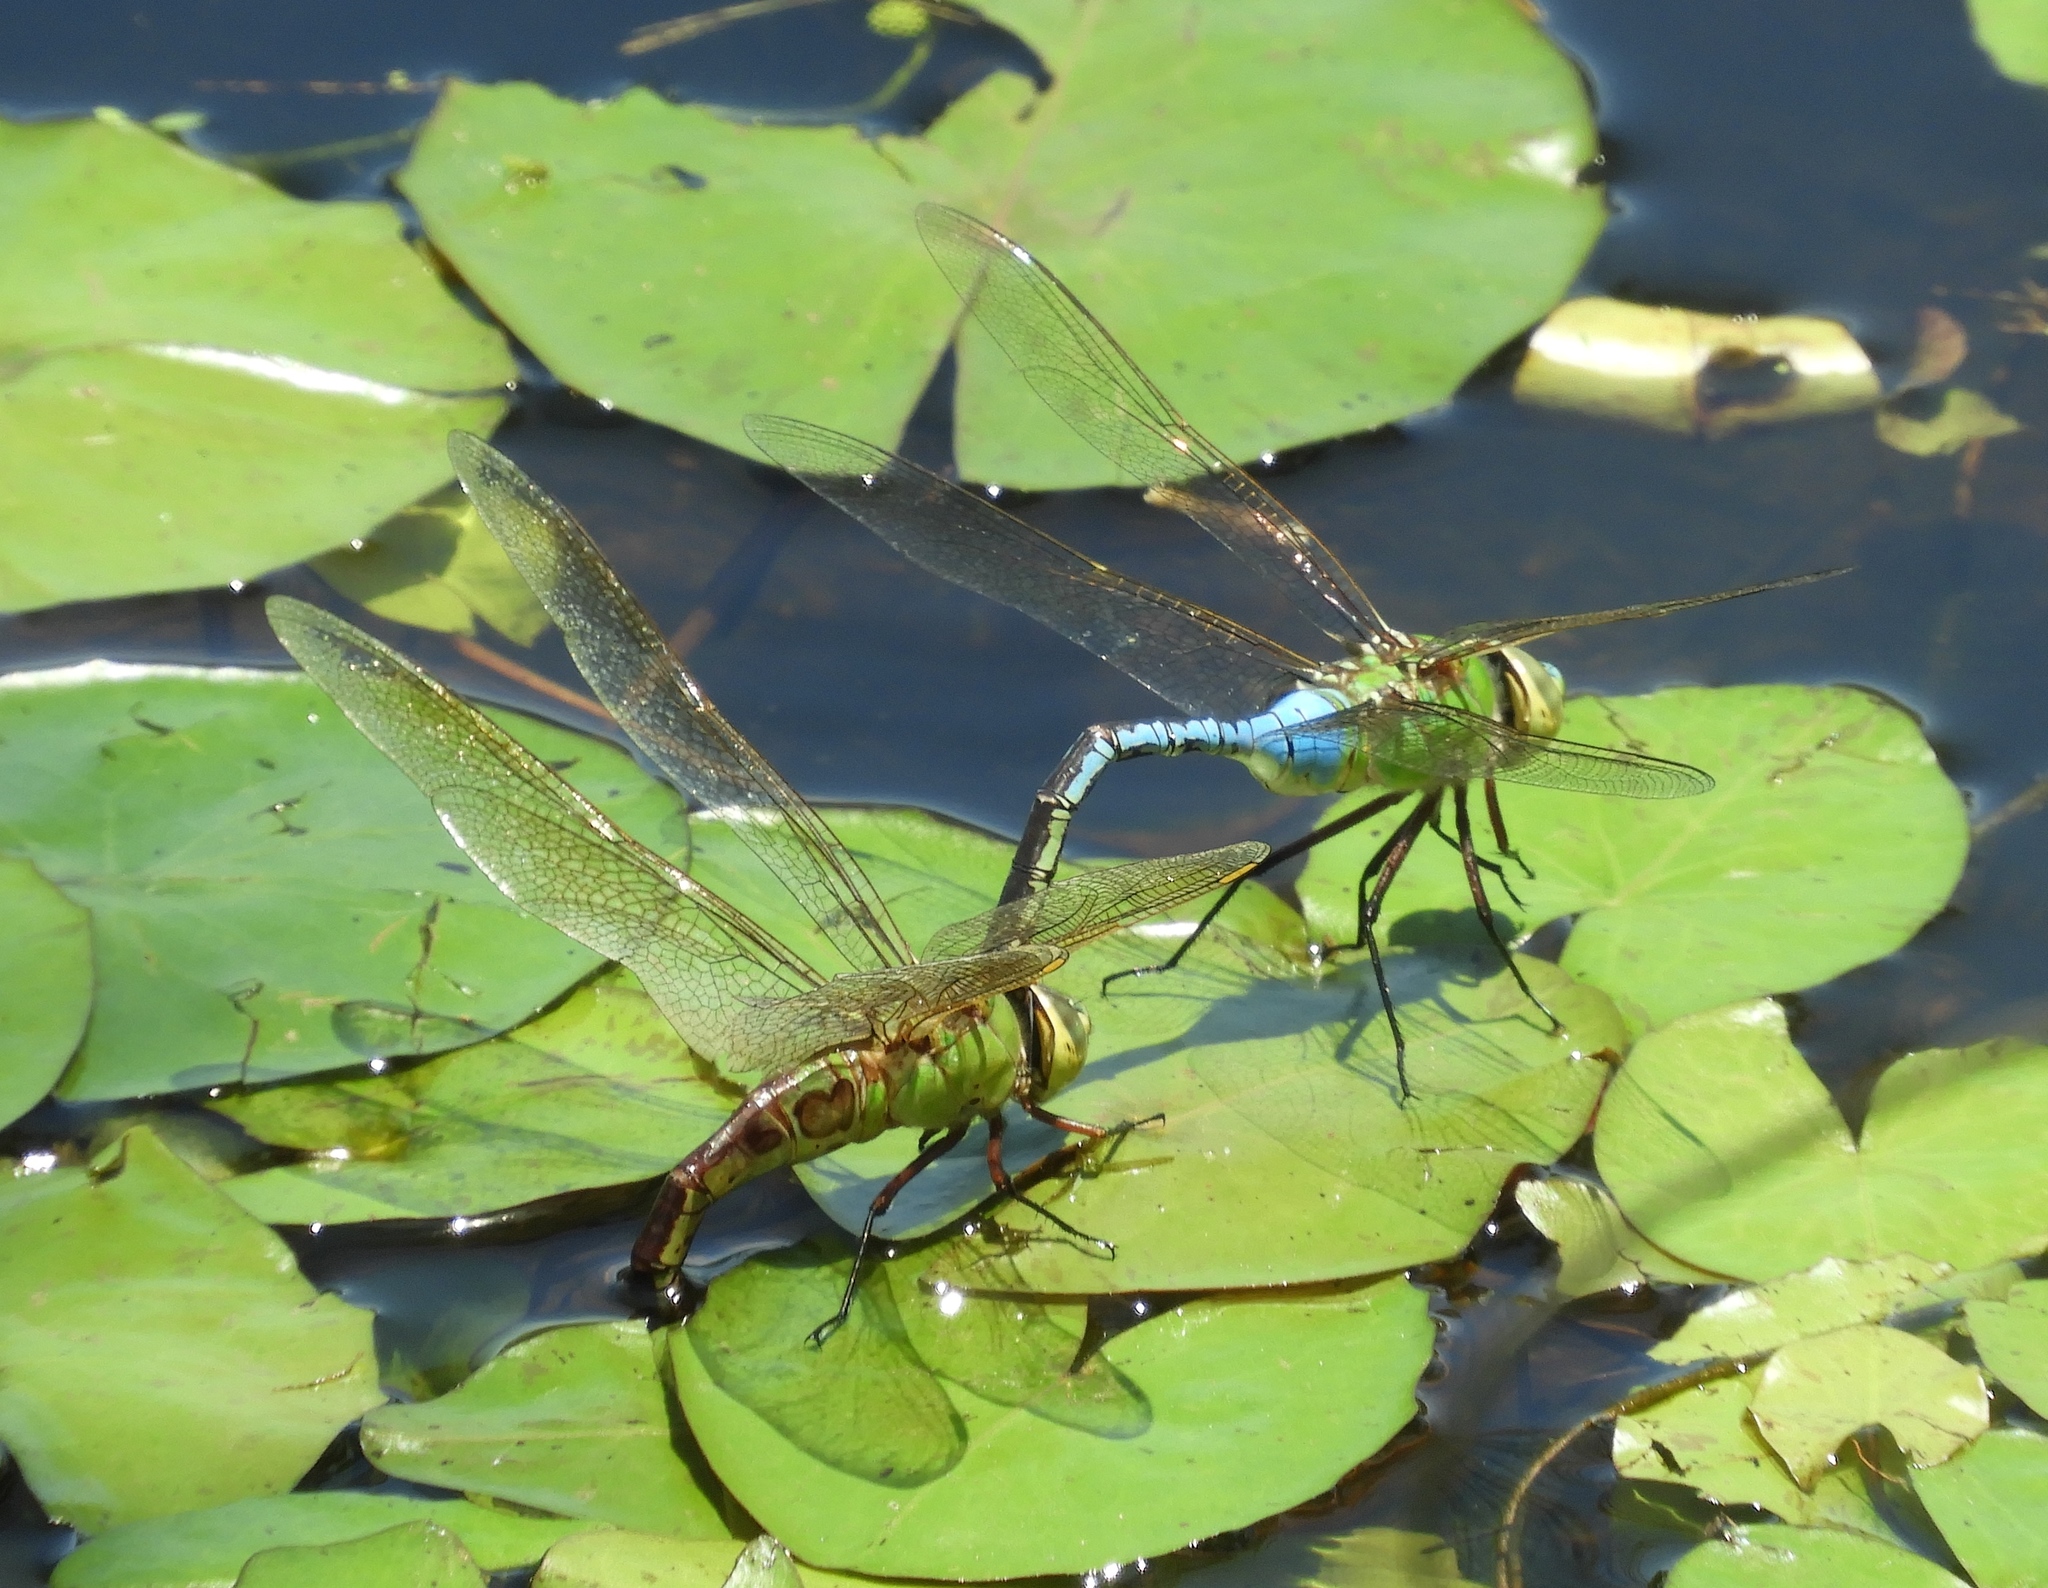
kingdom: Animalia
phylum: Arthropoda
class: Insecta
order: Odonata
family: Aeshnidae
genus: Anax
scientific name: Anax junius
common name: Common green darner
